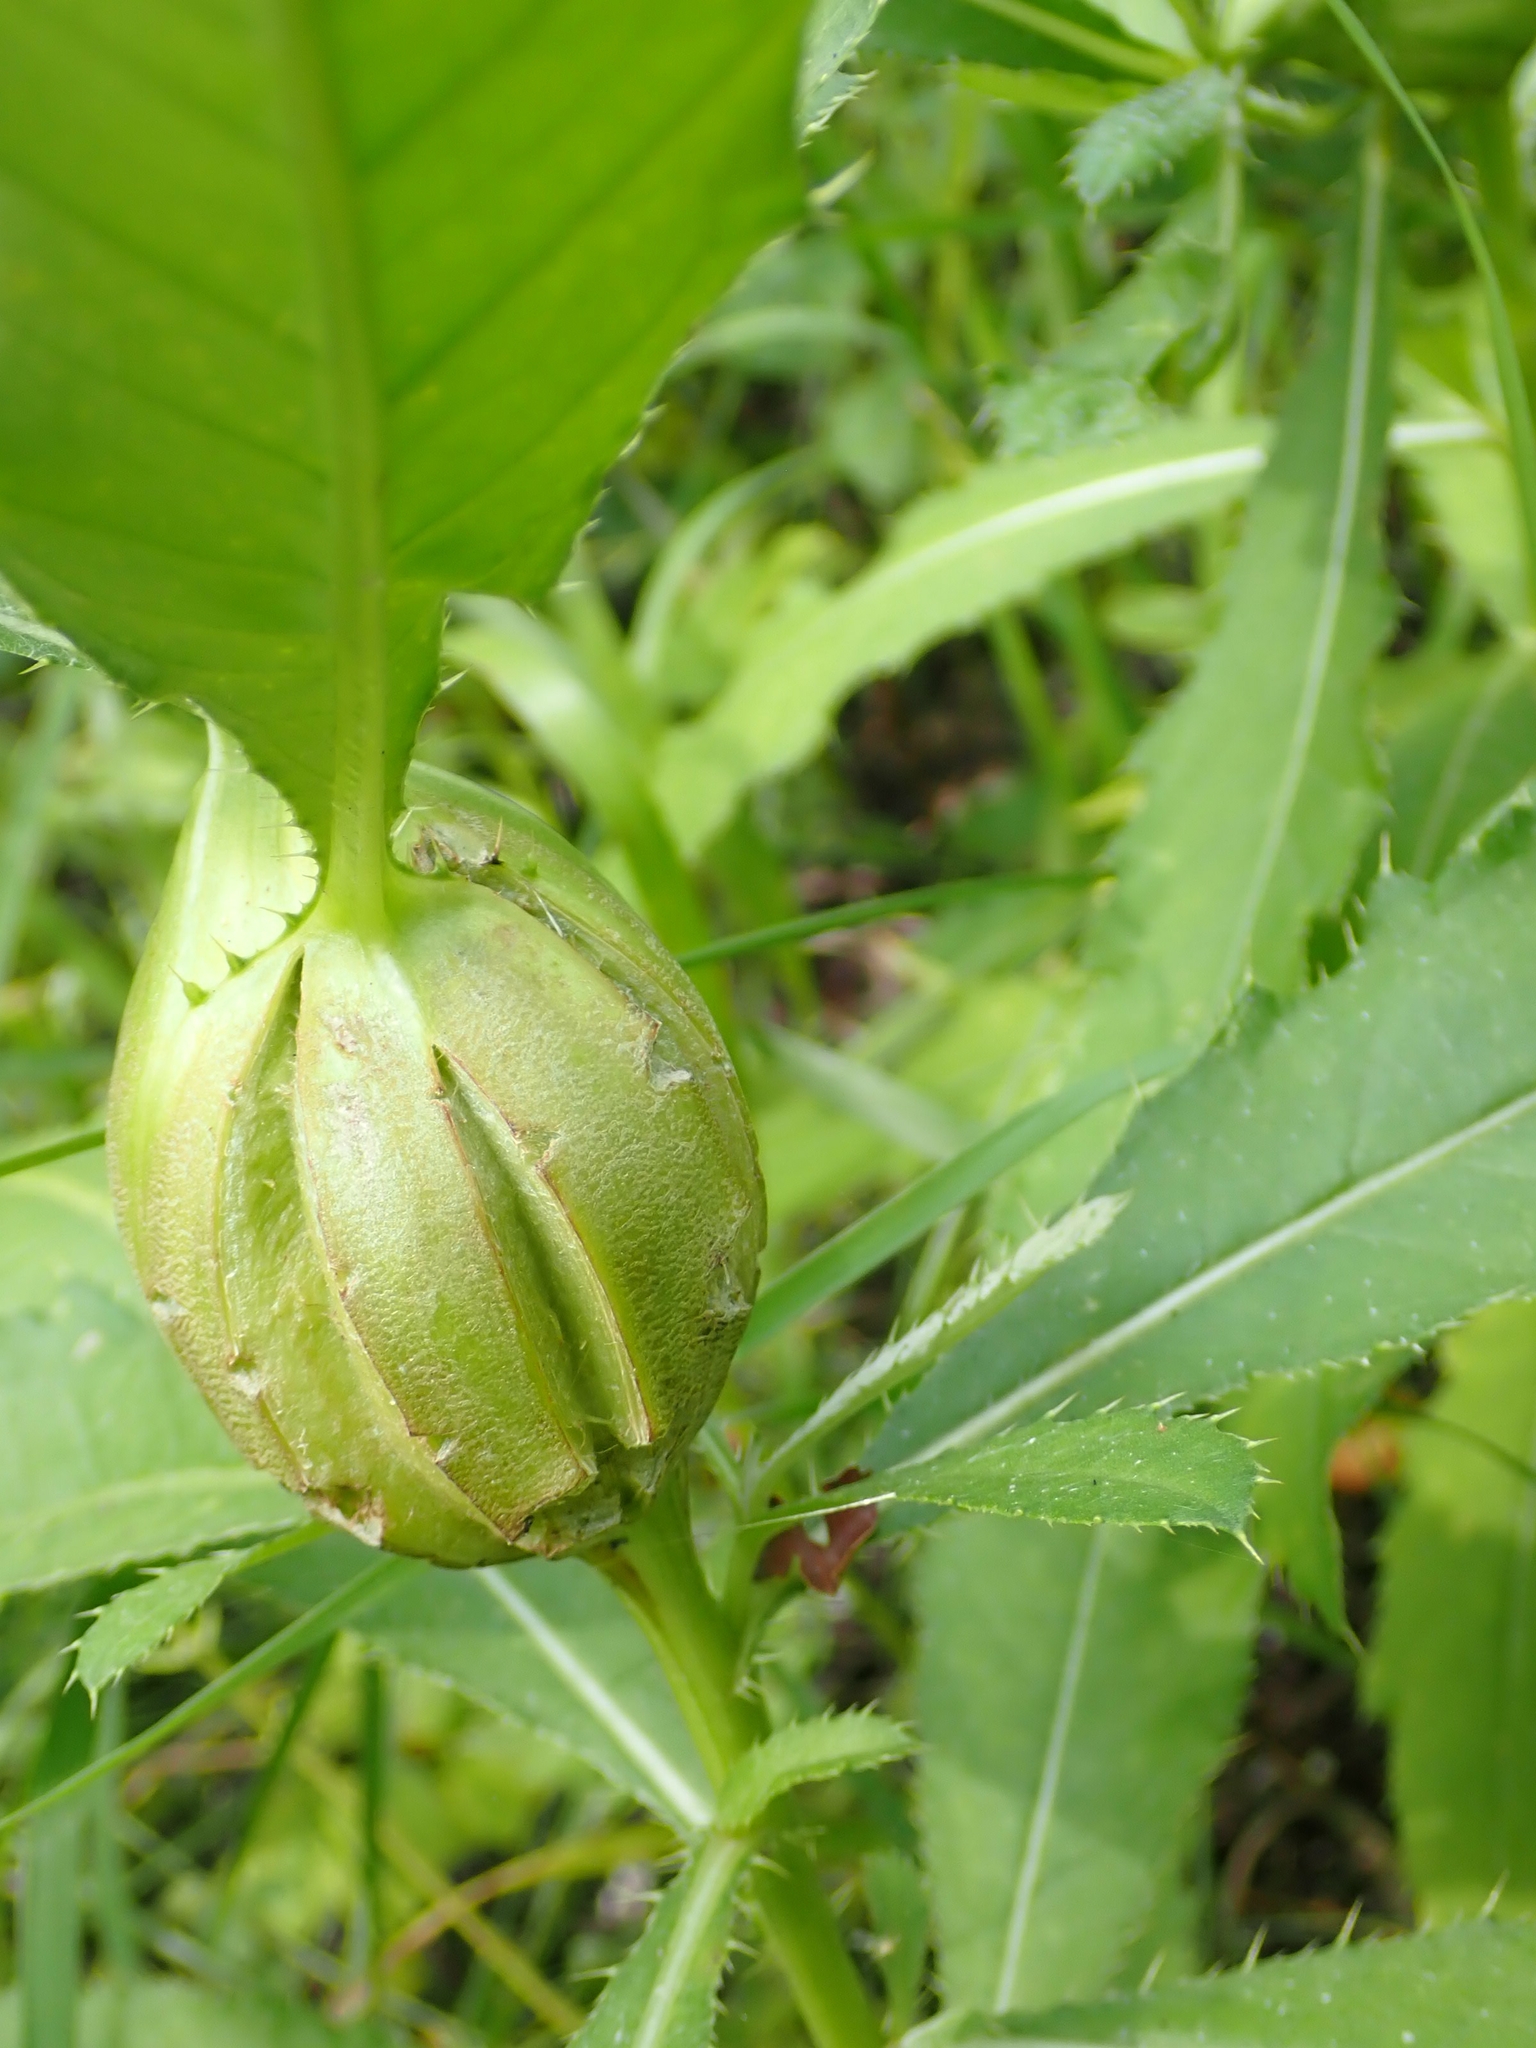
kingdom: Animalia
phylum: Arthropoda
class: Insecta
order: Diptera
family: Tephritidae
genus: Urophora
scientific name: Urophora cardui
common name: Fruit fly
